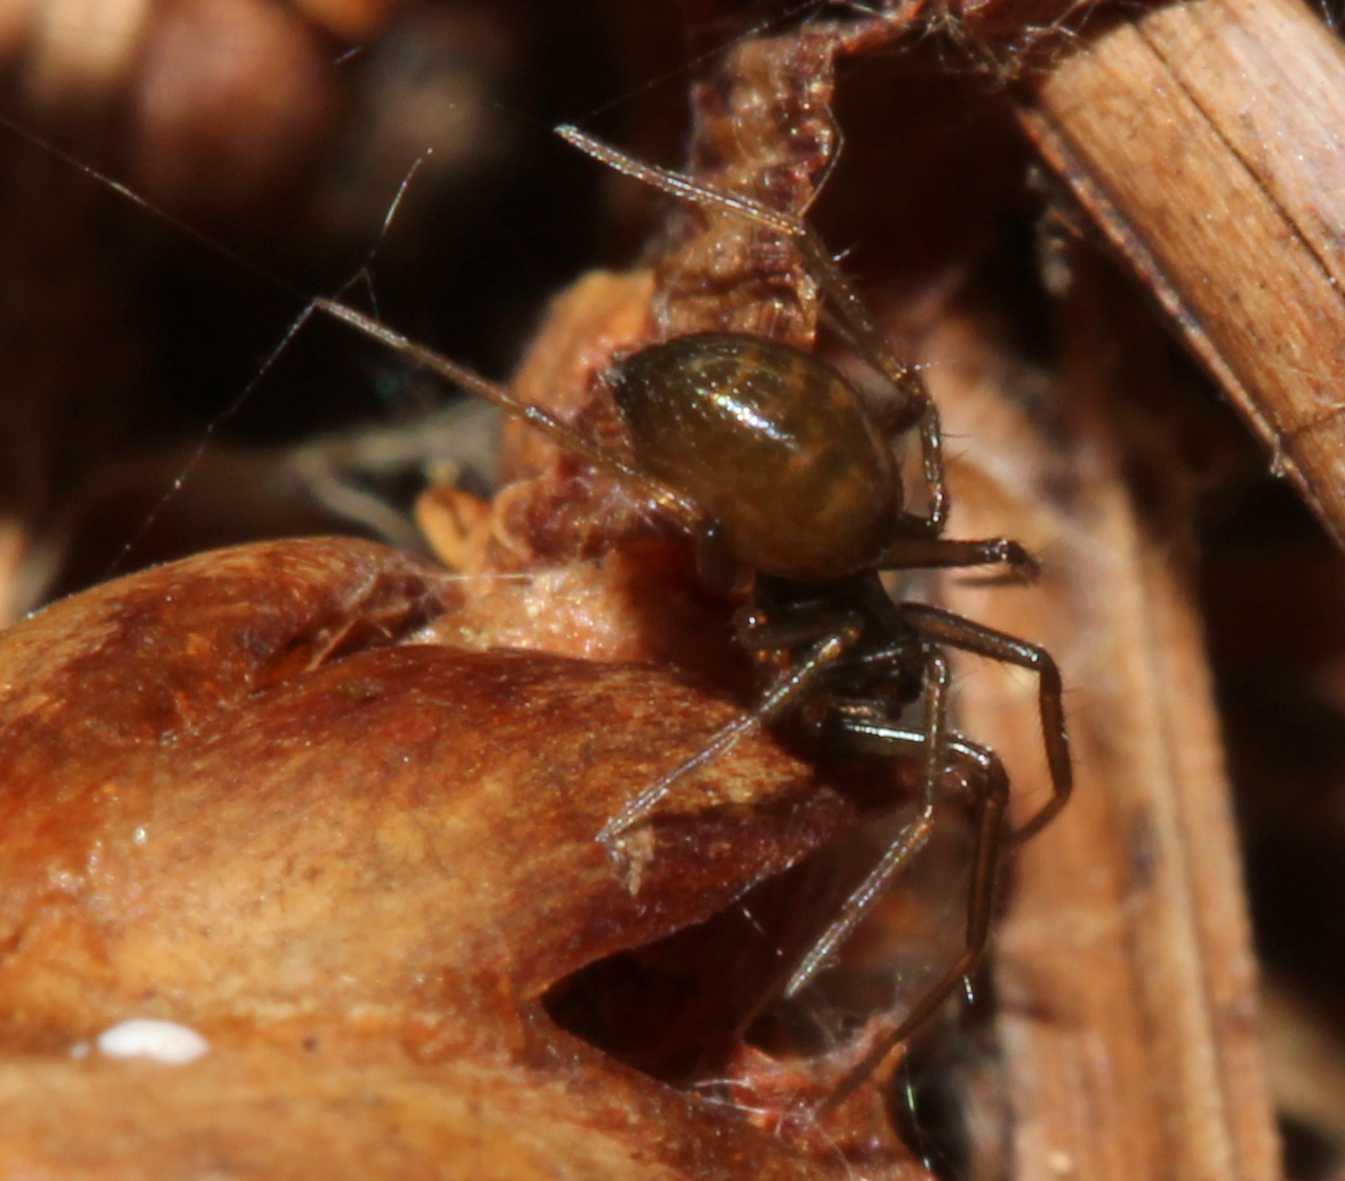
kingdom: Animalia
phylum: Arthropoda
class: Arachnida
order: Araneae
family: Theridiidae
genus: Steatoda
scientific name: Steatoda
